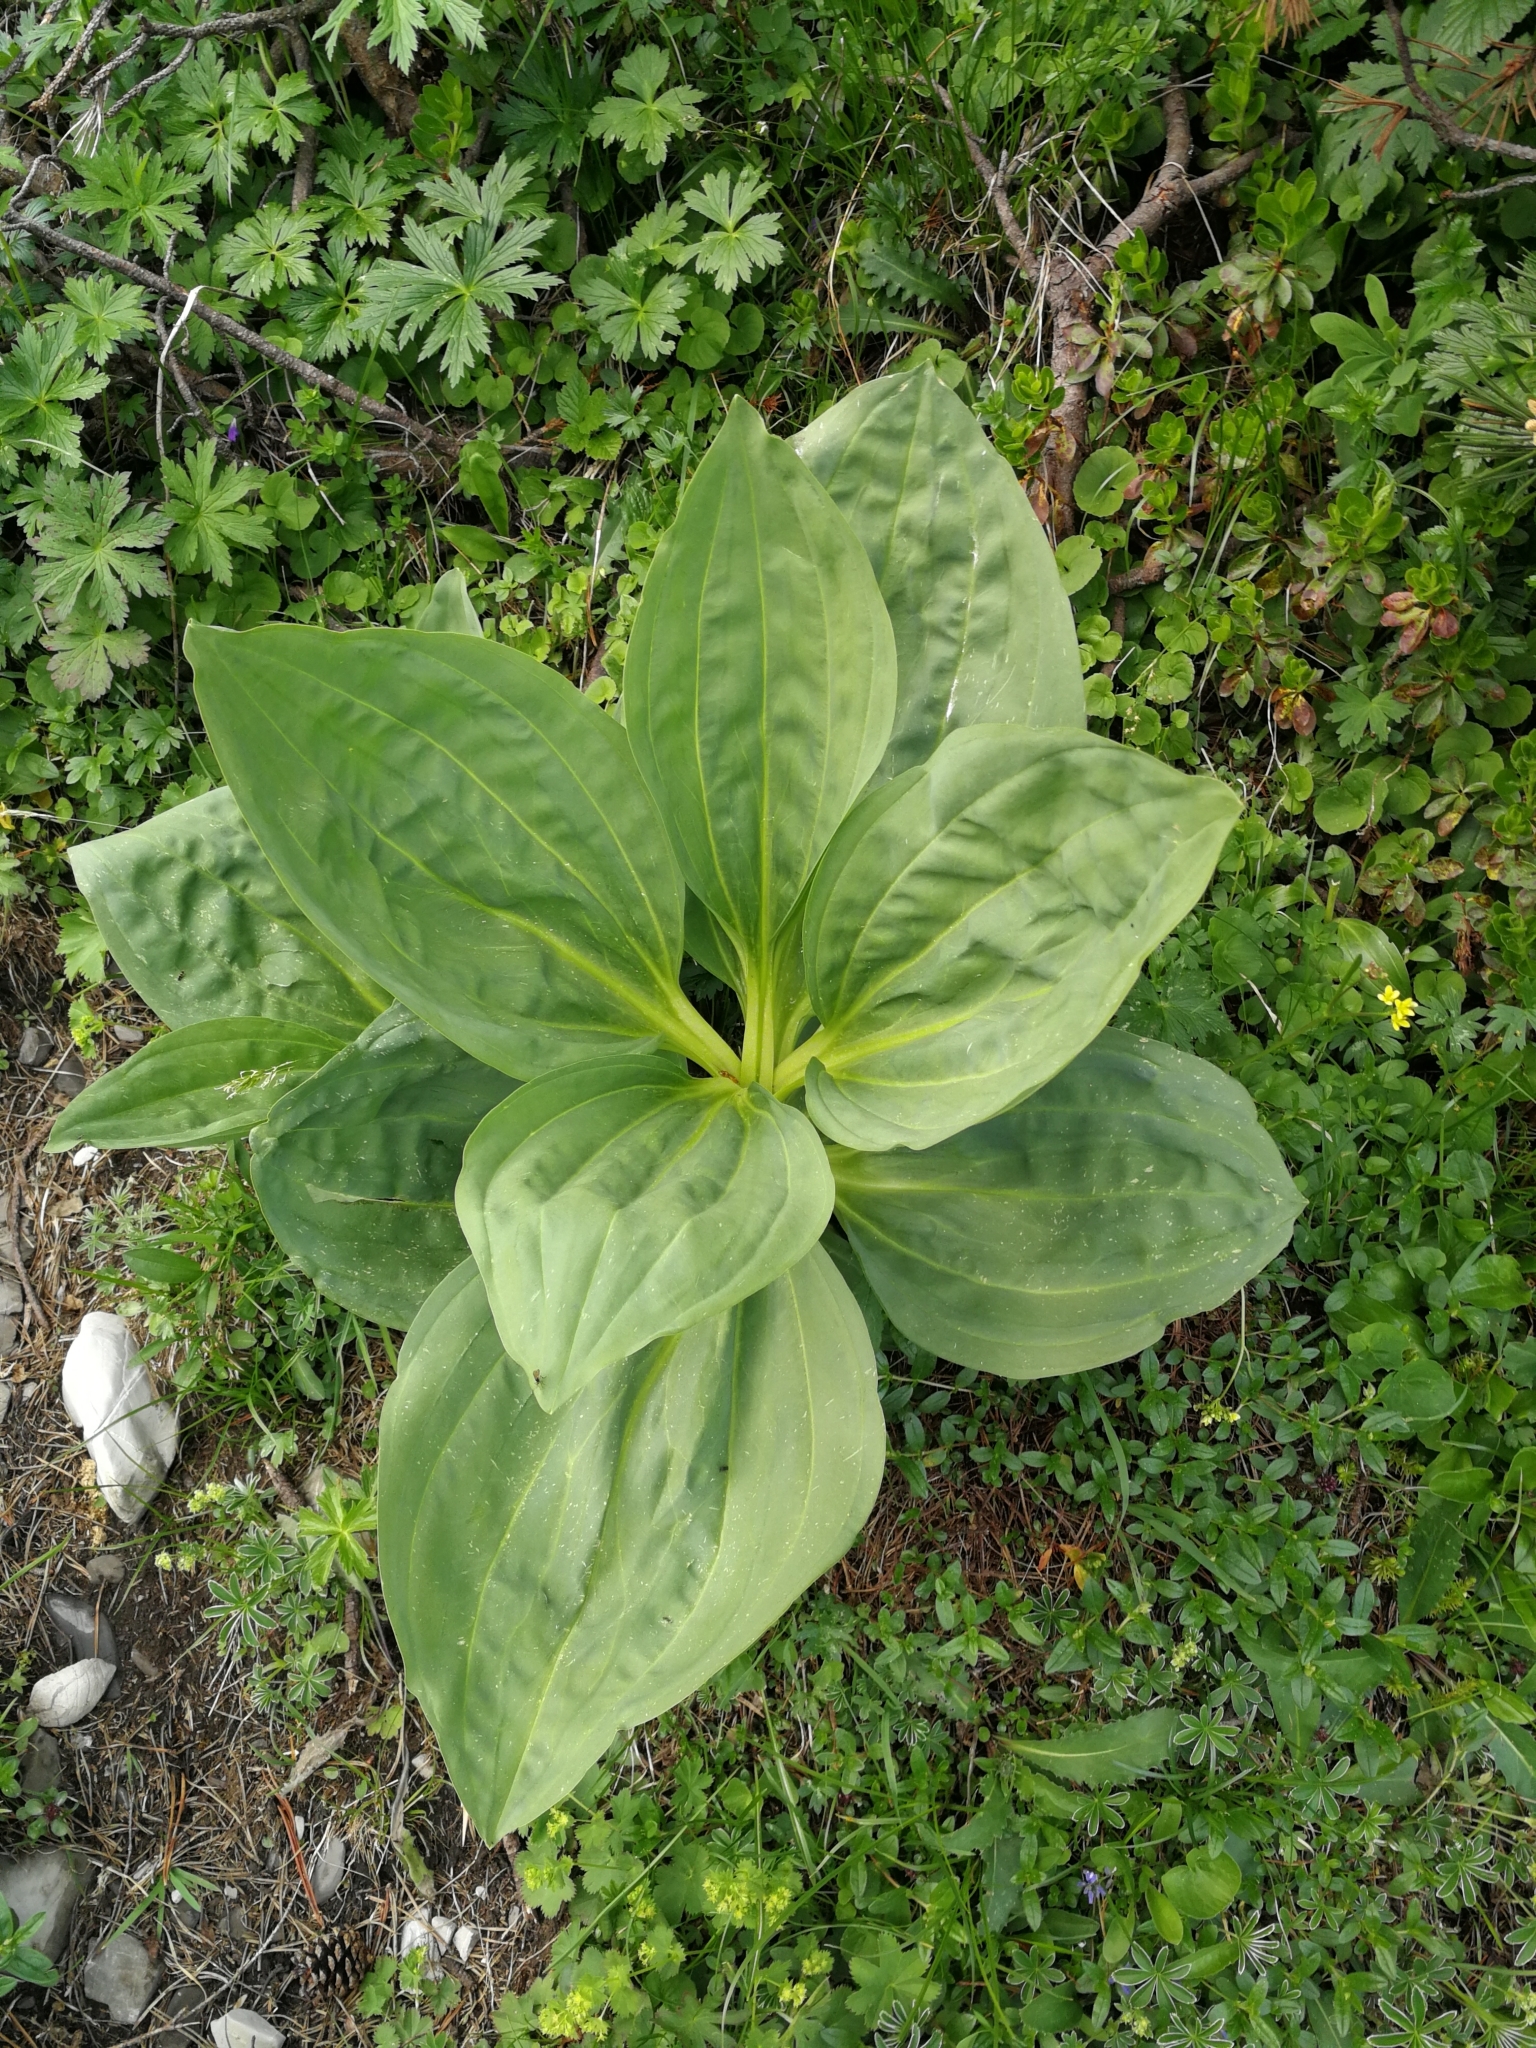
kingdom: Plantae
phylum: Tracheophyta
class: Magnoliopsida
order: Gentianales
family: Gentianaceae
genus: Gentiana
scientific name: Gentiana lutea
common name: Great yellow gentian
